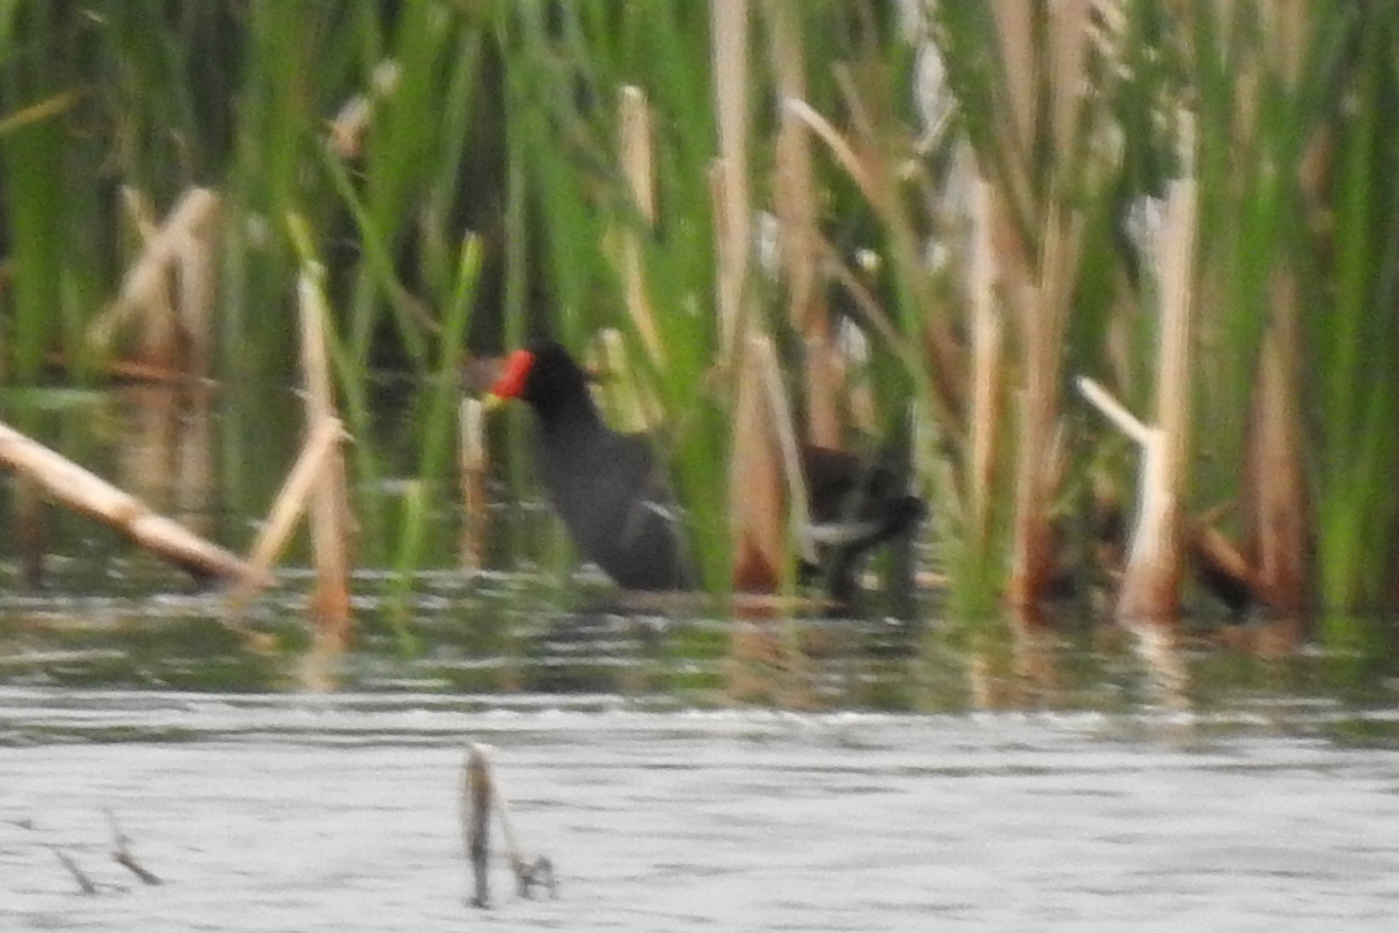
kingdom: Animalia
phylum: Chordata
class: Aves
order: Gruiformes
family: Rallidae
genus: Gallinula
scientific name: Gallinula chloropus
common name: Common moorhen
